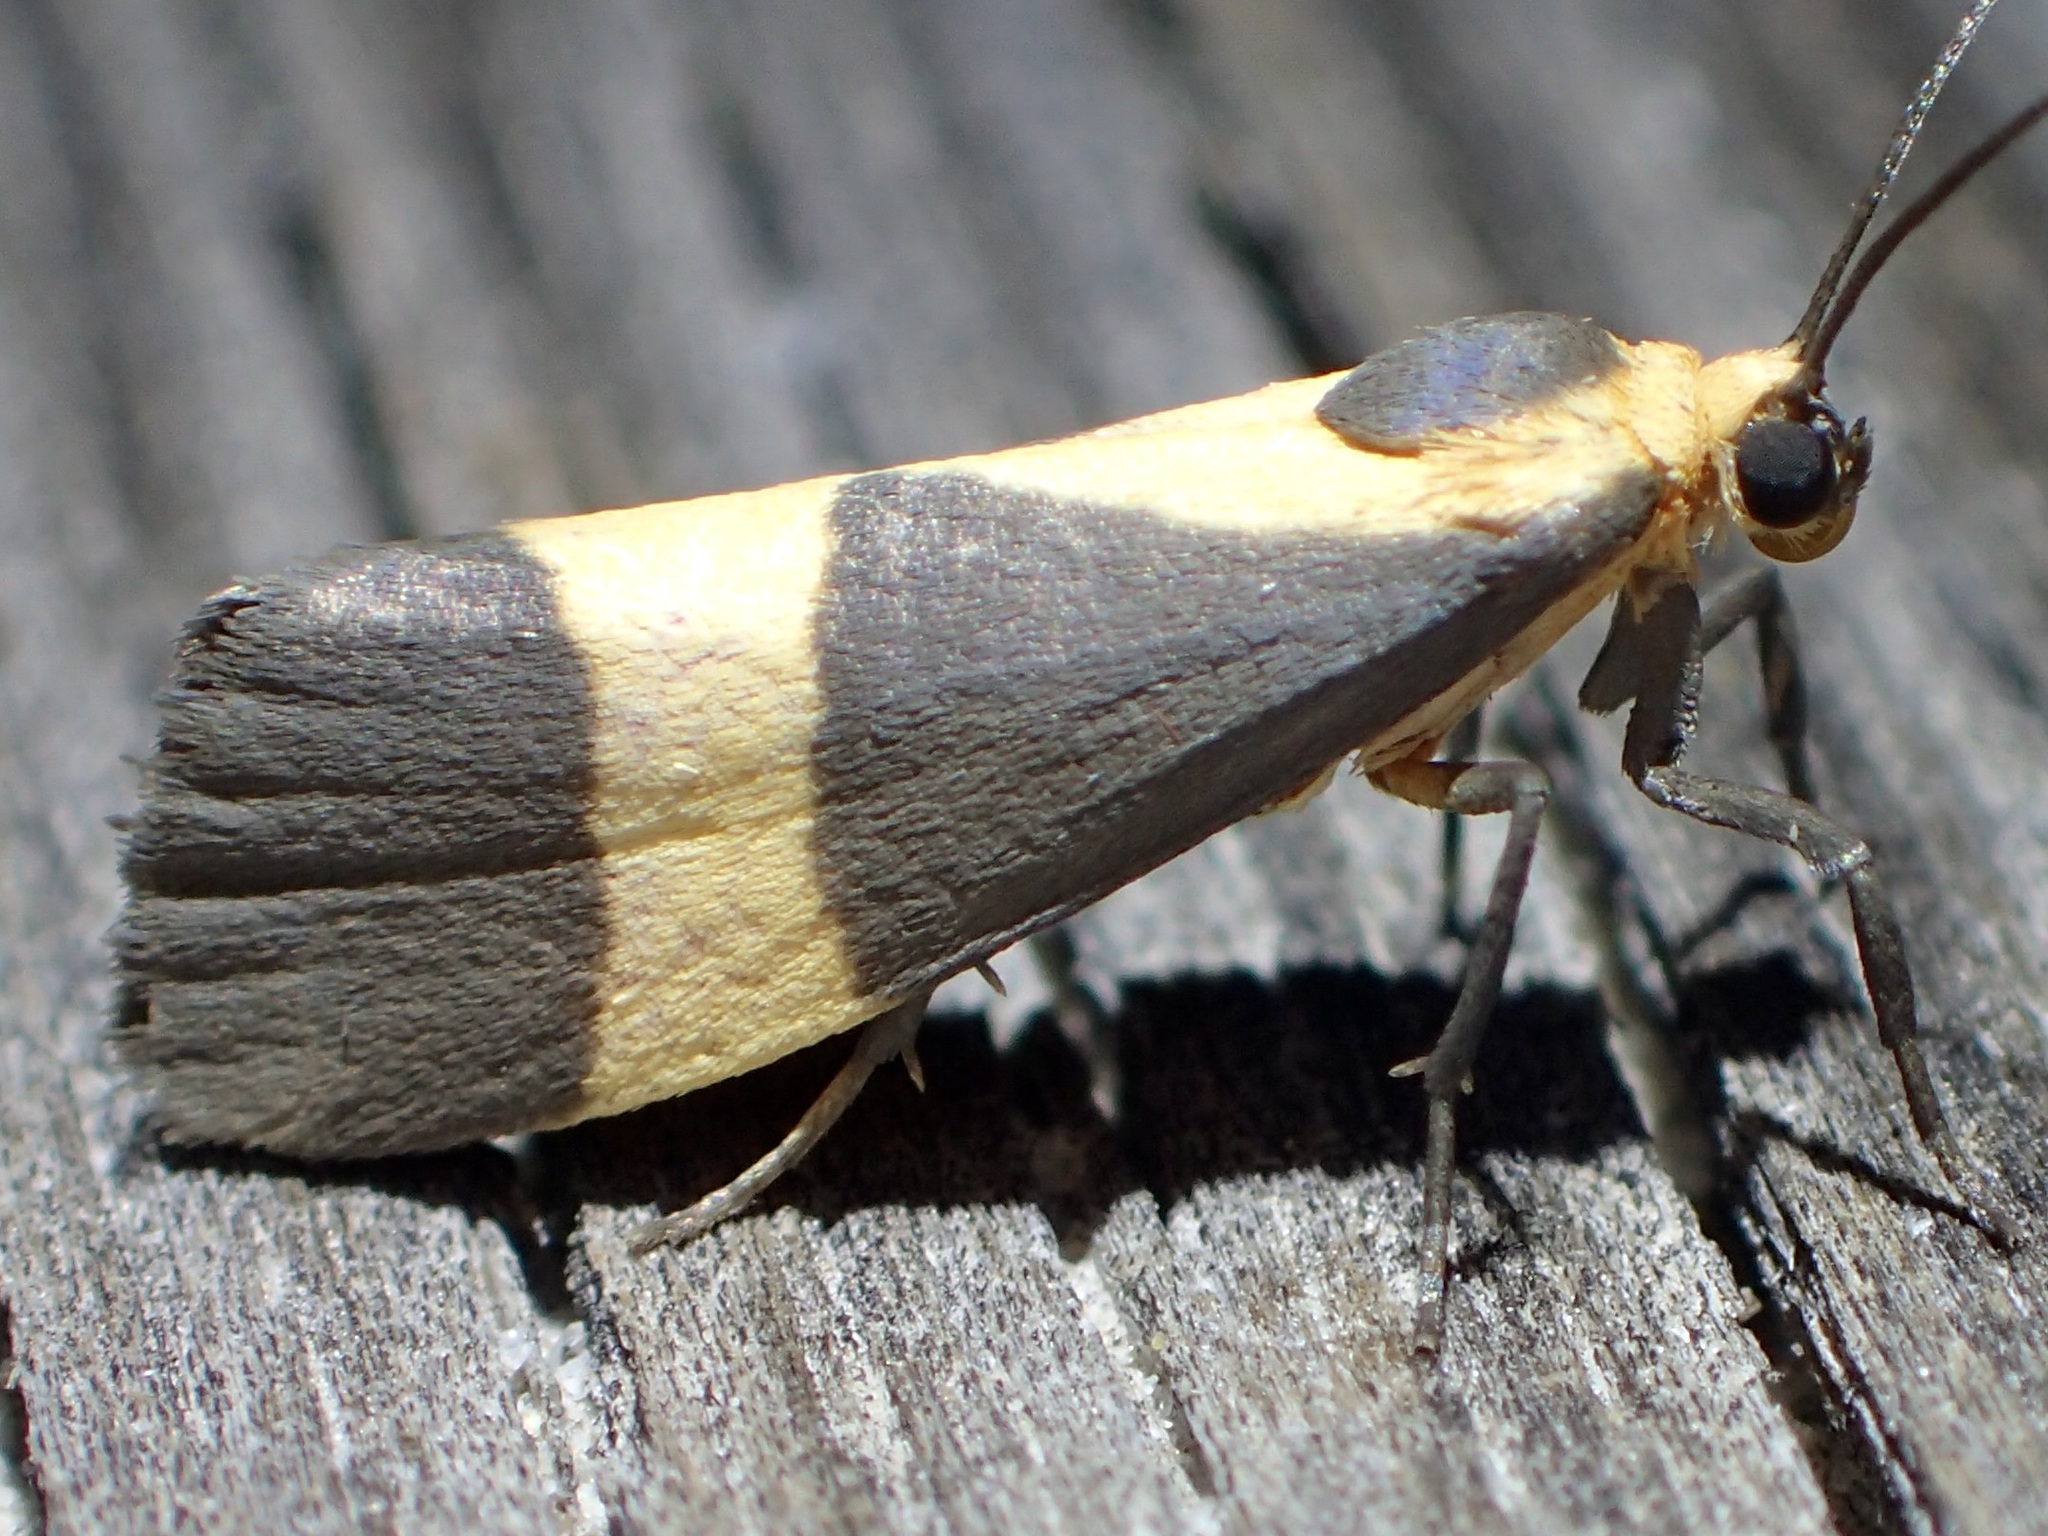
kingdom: Animalia
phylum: Arthropoda
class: Insecta
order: Lepidoptera
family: Erebidae
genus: Cisthene
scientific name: Cisthene tenuifascia
